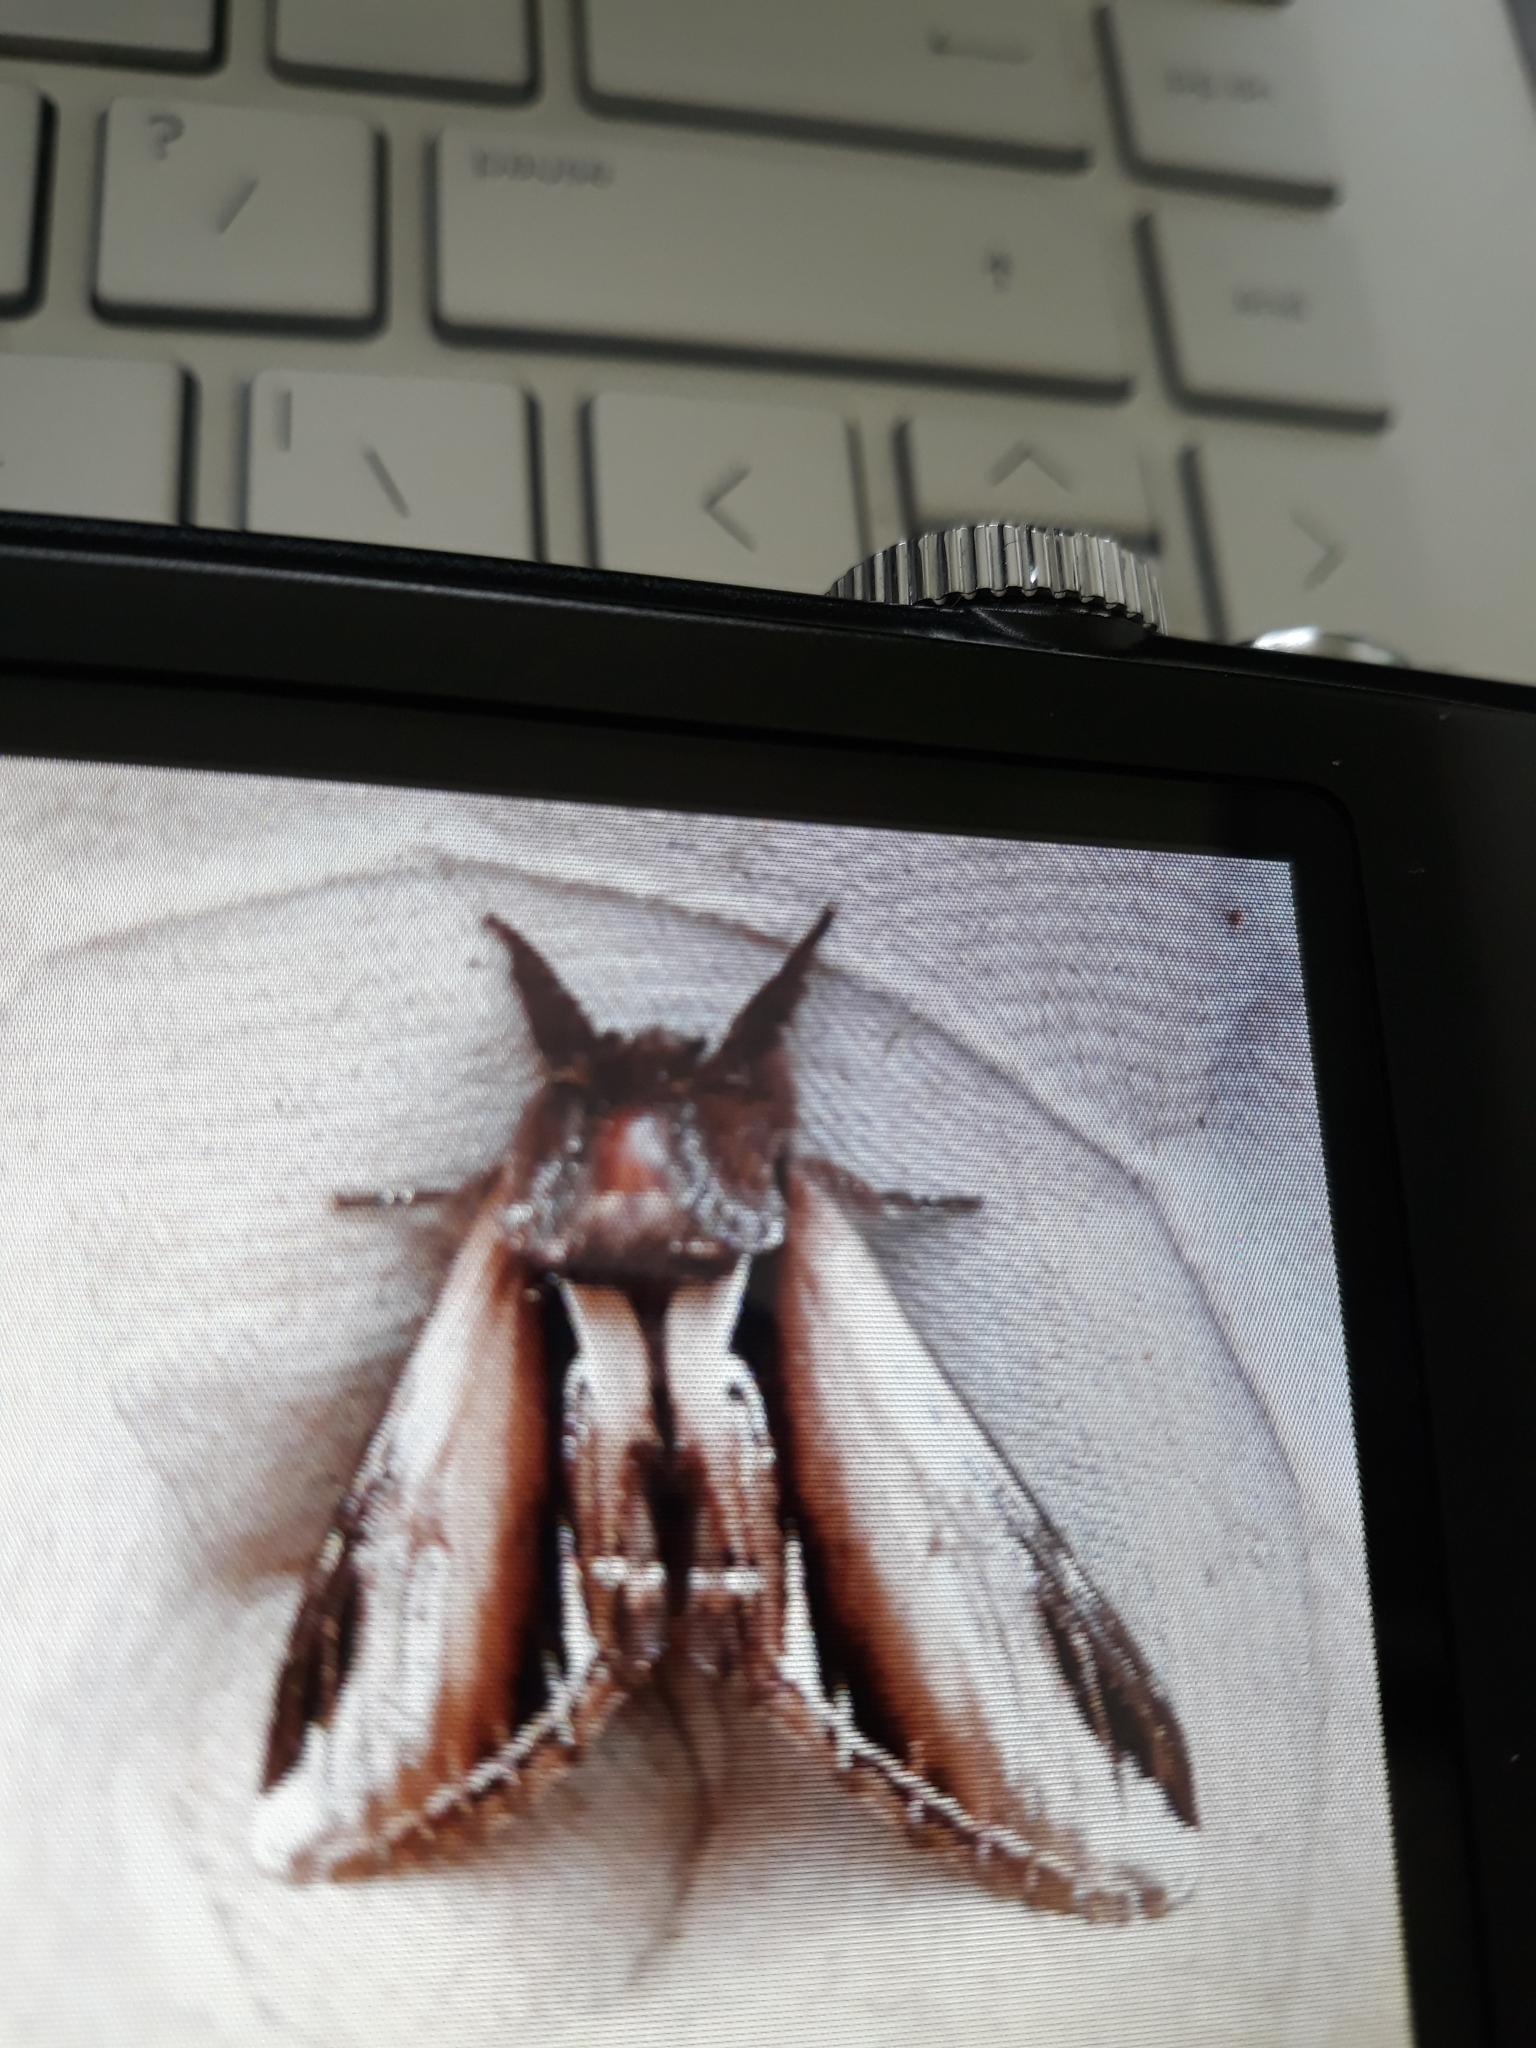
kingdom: Animalia
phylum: Arthropoda
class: Insecta
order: Lepidoptera
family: Notodontidae
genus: Pheosia
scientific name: Pheosia gnoma
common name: Lesser swallow prominent
